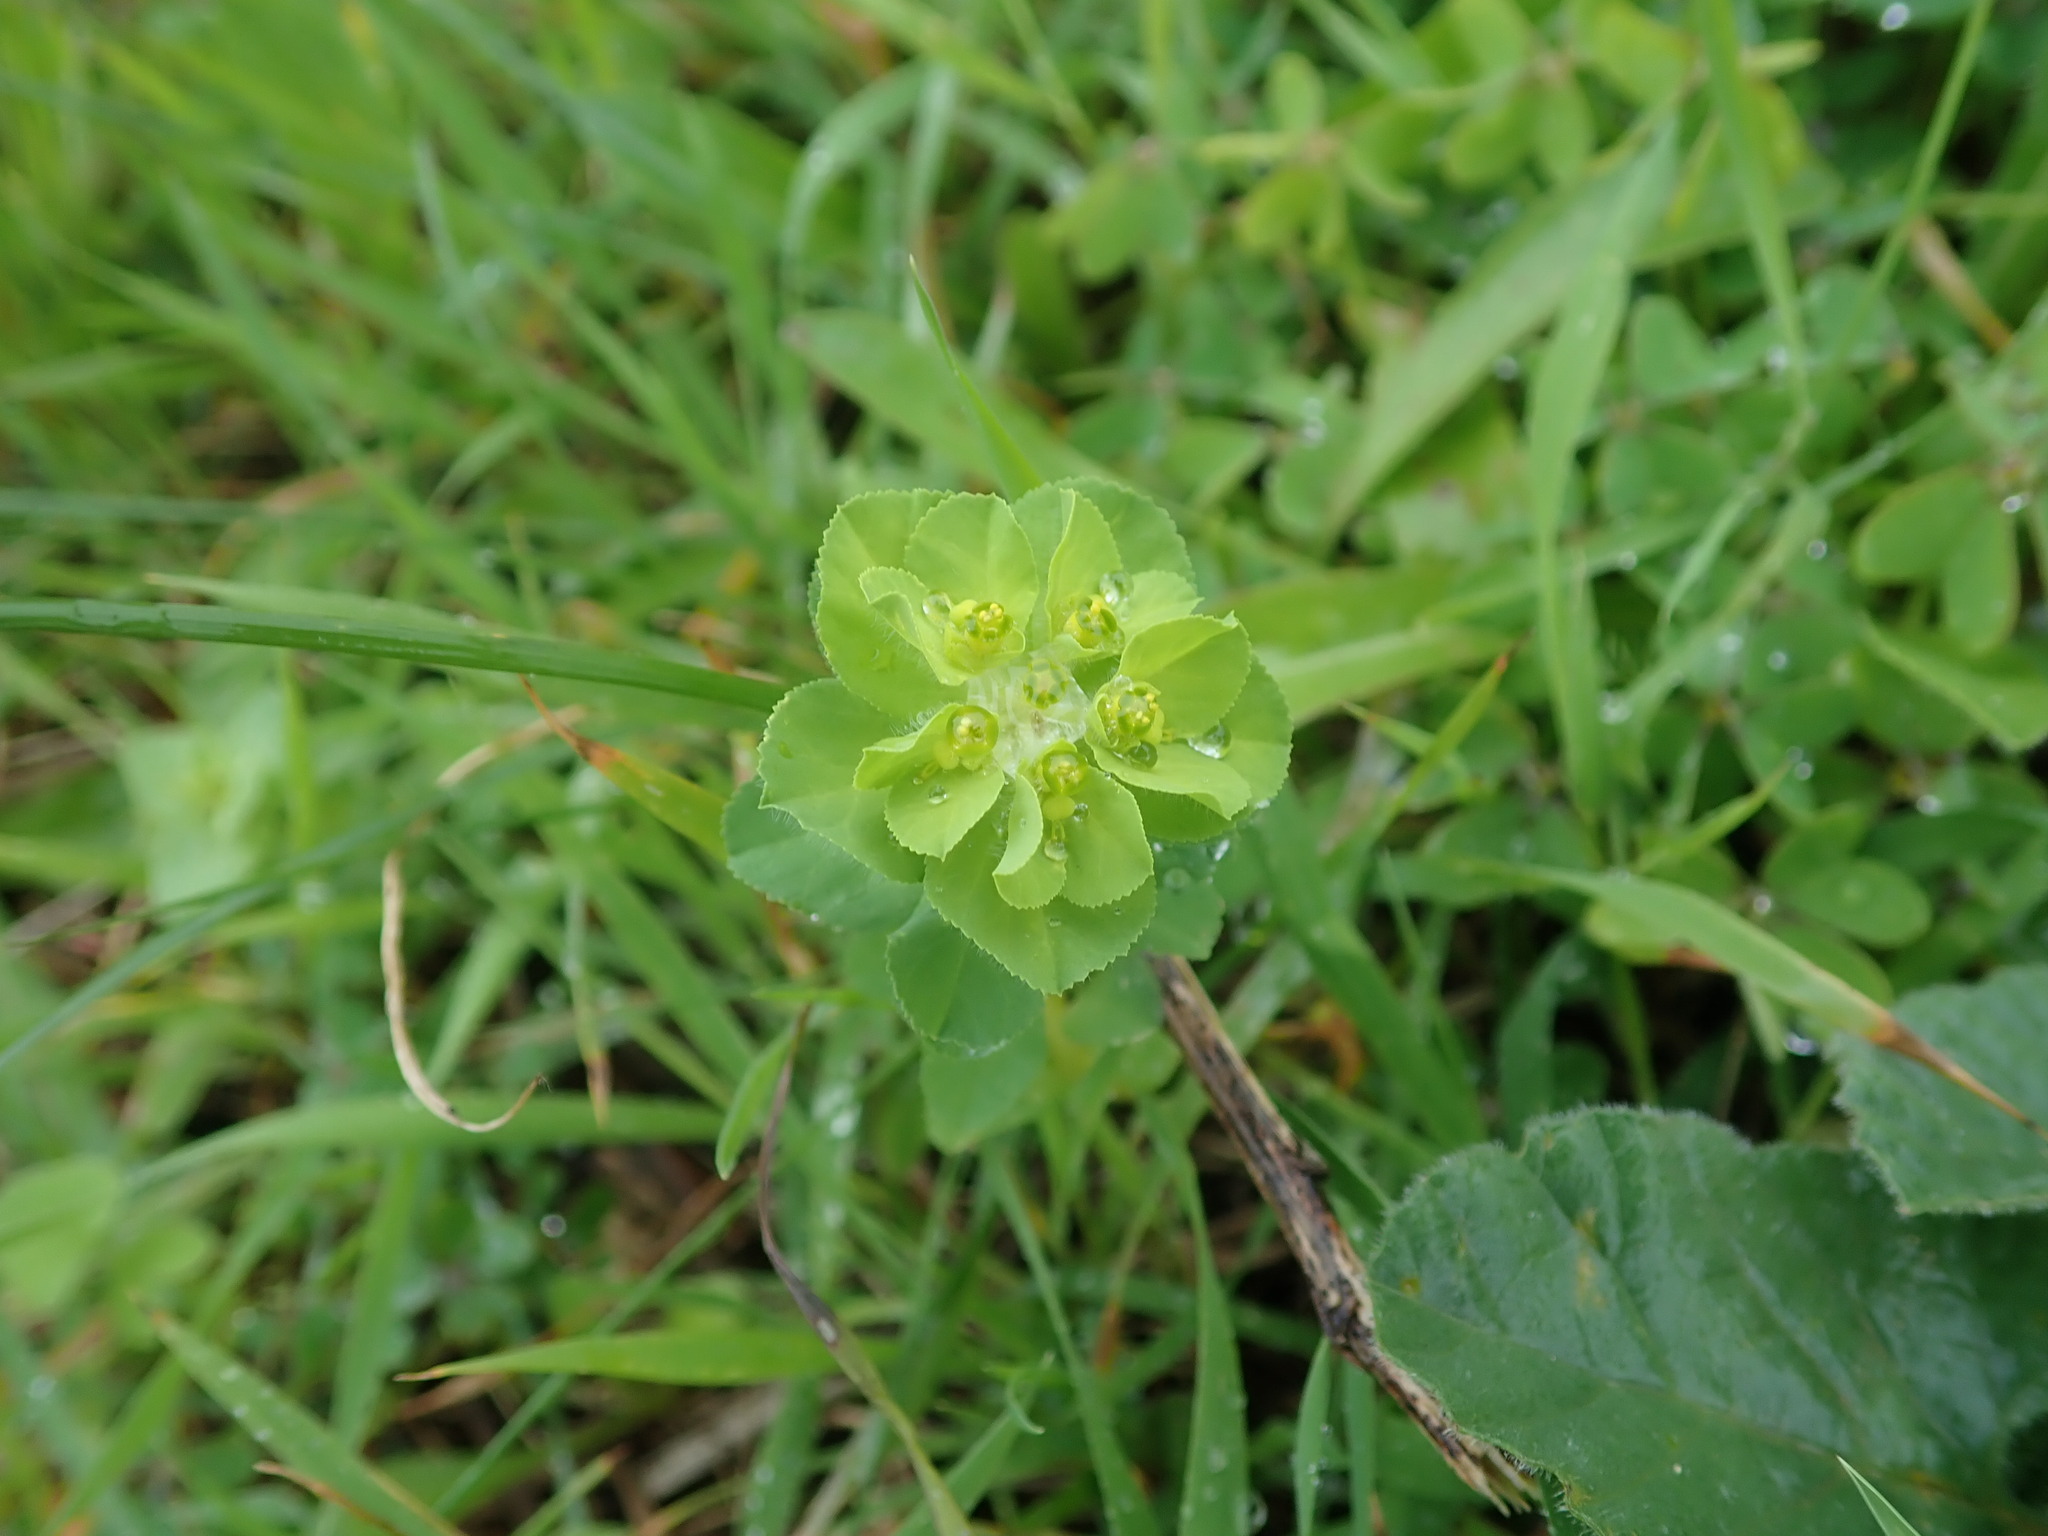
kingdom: Plantae
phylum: Tracheophyta
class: Magnoliopsida
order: Malpighiales
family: Euphorbiaceae
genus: Euphorbia
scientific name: Euphorbia helioscopia
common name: Sun spurge
